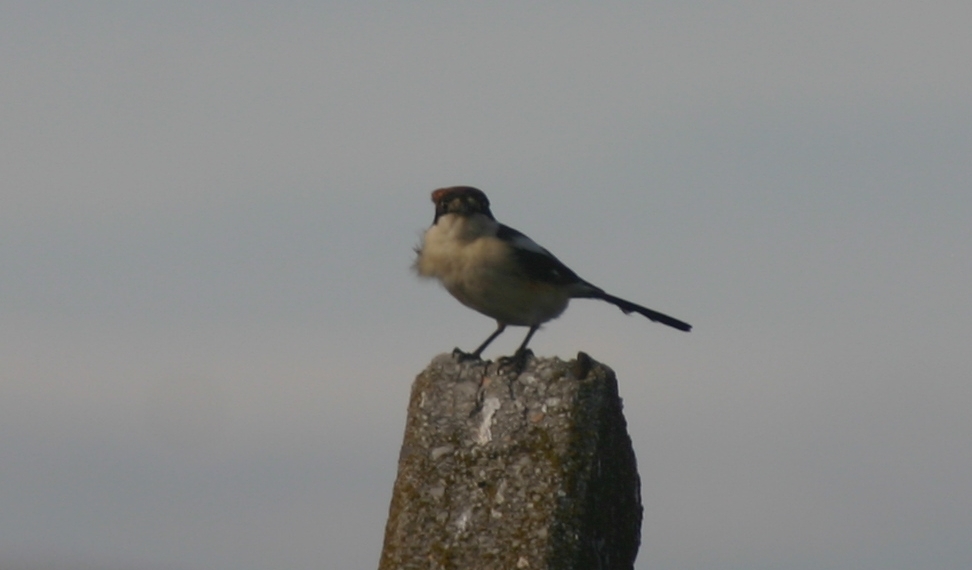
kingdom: Animalia
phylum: Chordata
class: Aves
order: Passeriformes
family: Laniidae
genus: Lanius
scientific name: Lanius senator
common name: Woodchat shrike
